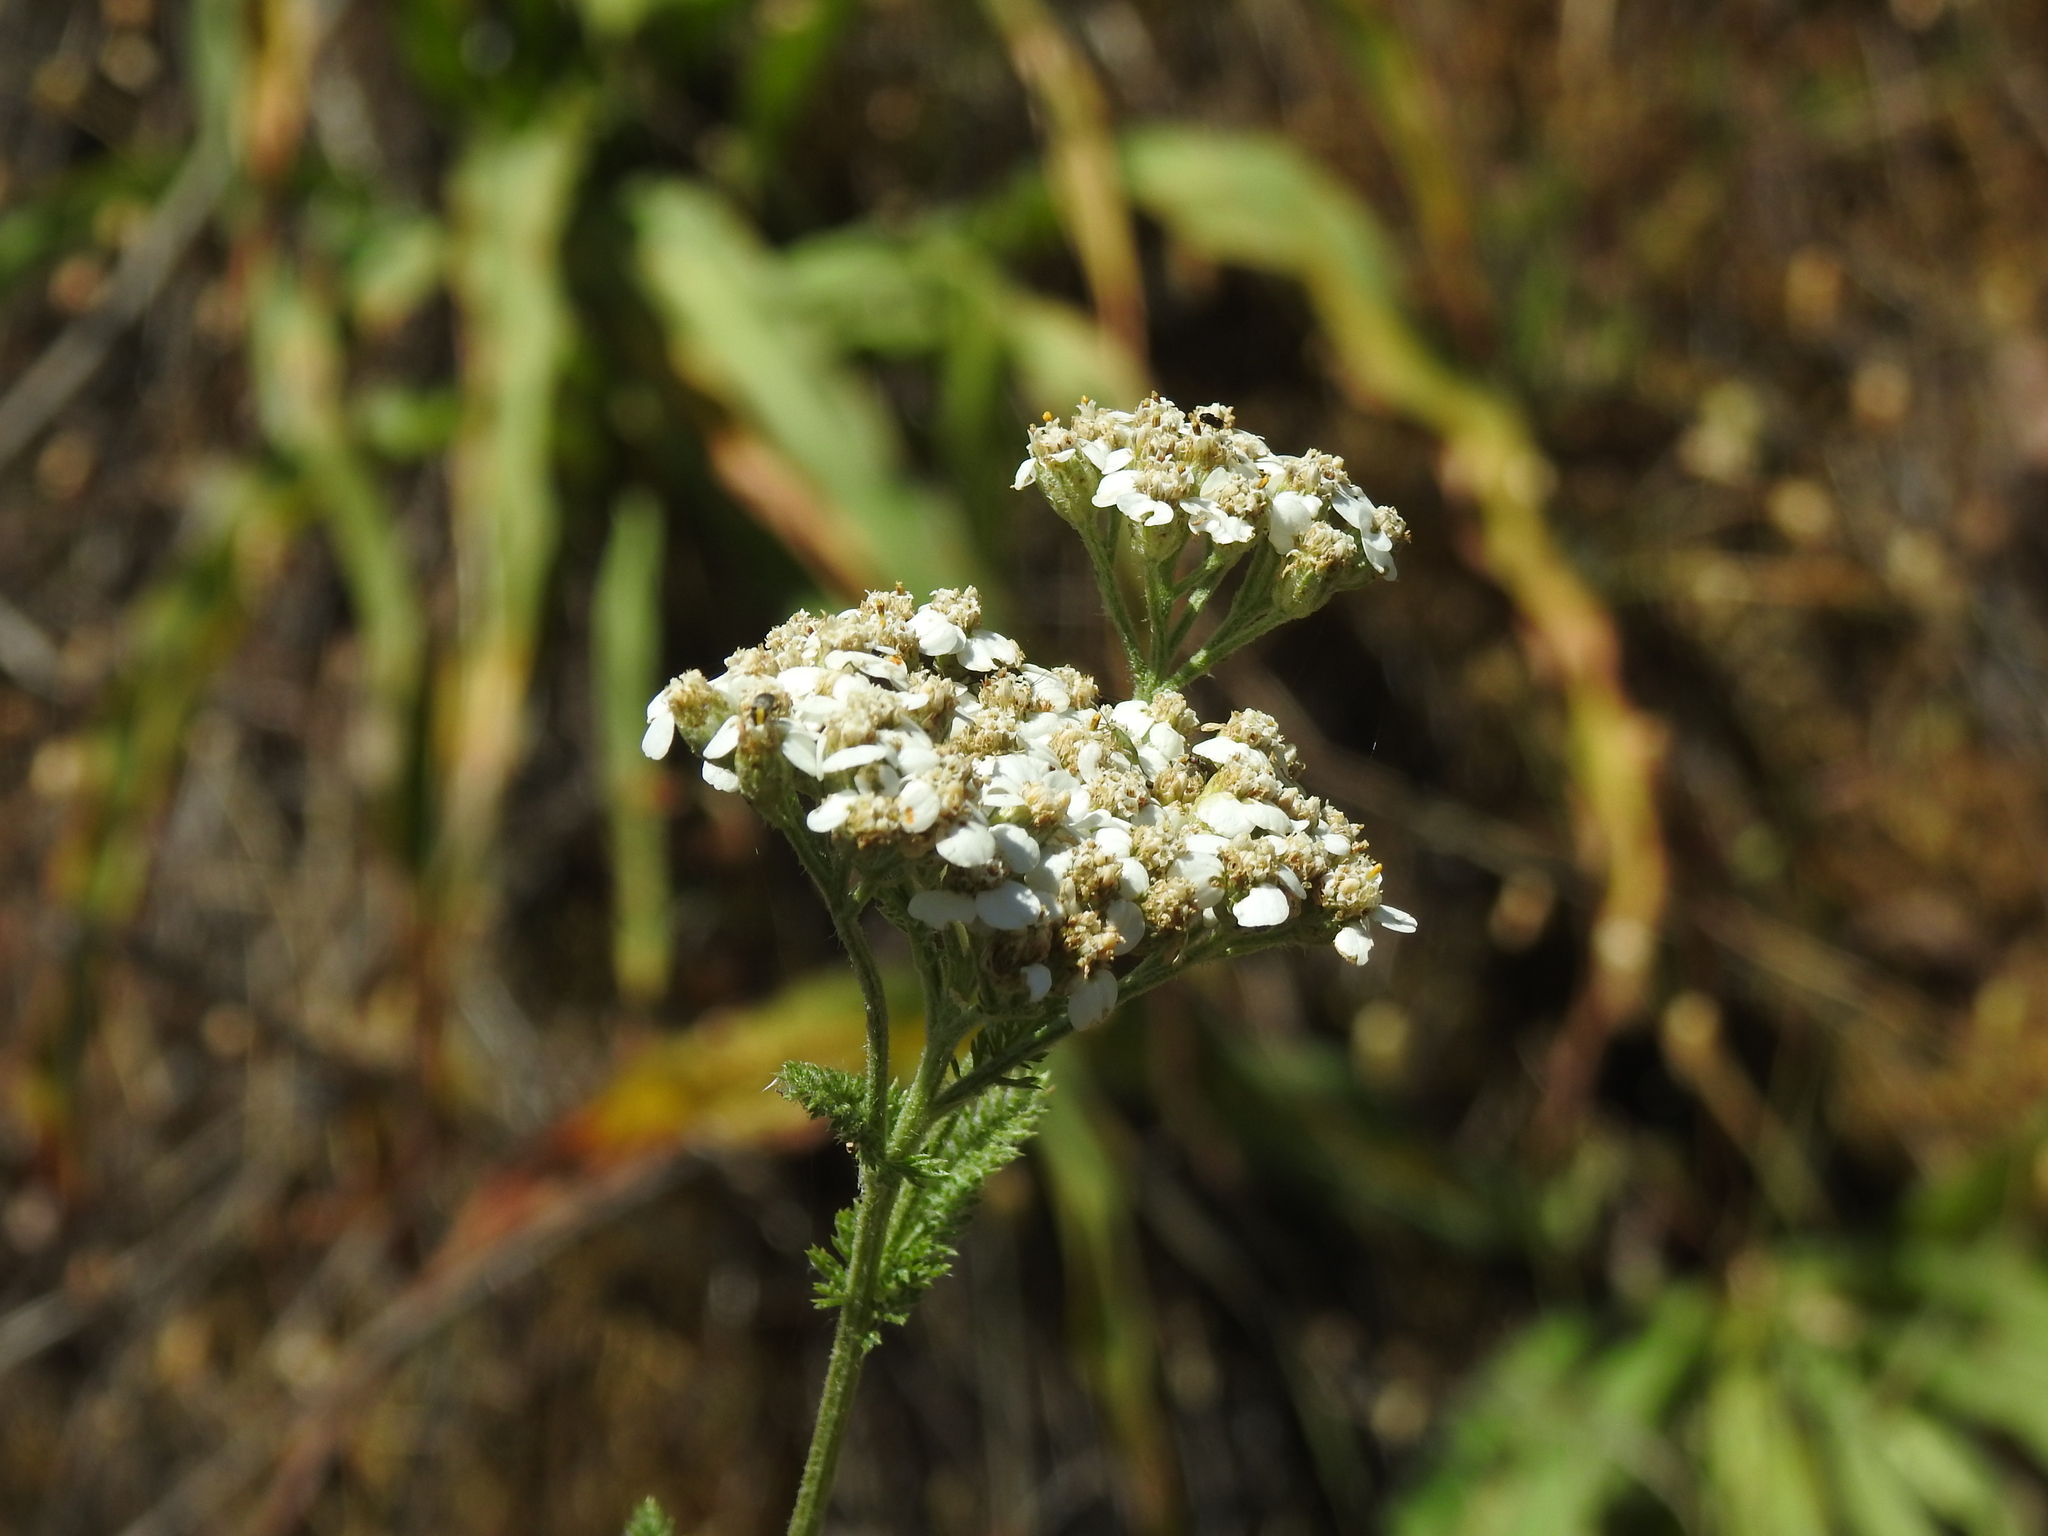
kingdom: Plantae
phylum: Tracheophyta
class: Magnoliopsida
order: Asterales
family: Asteraceae
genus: Achillea
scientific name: Achillea millefolium
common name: Yarrow
